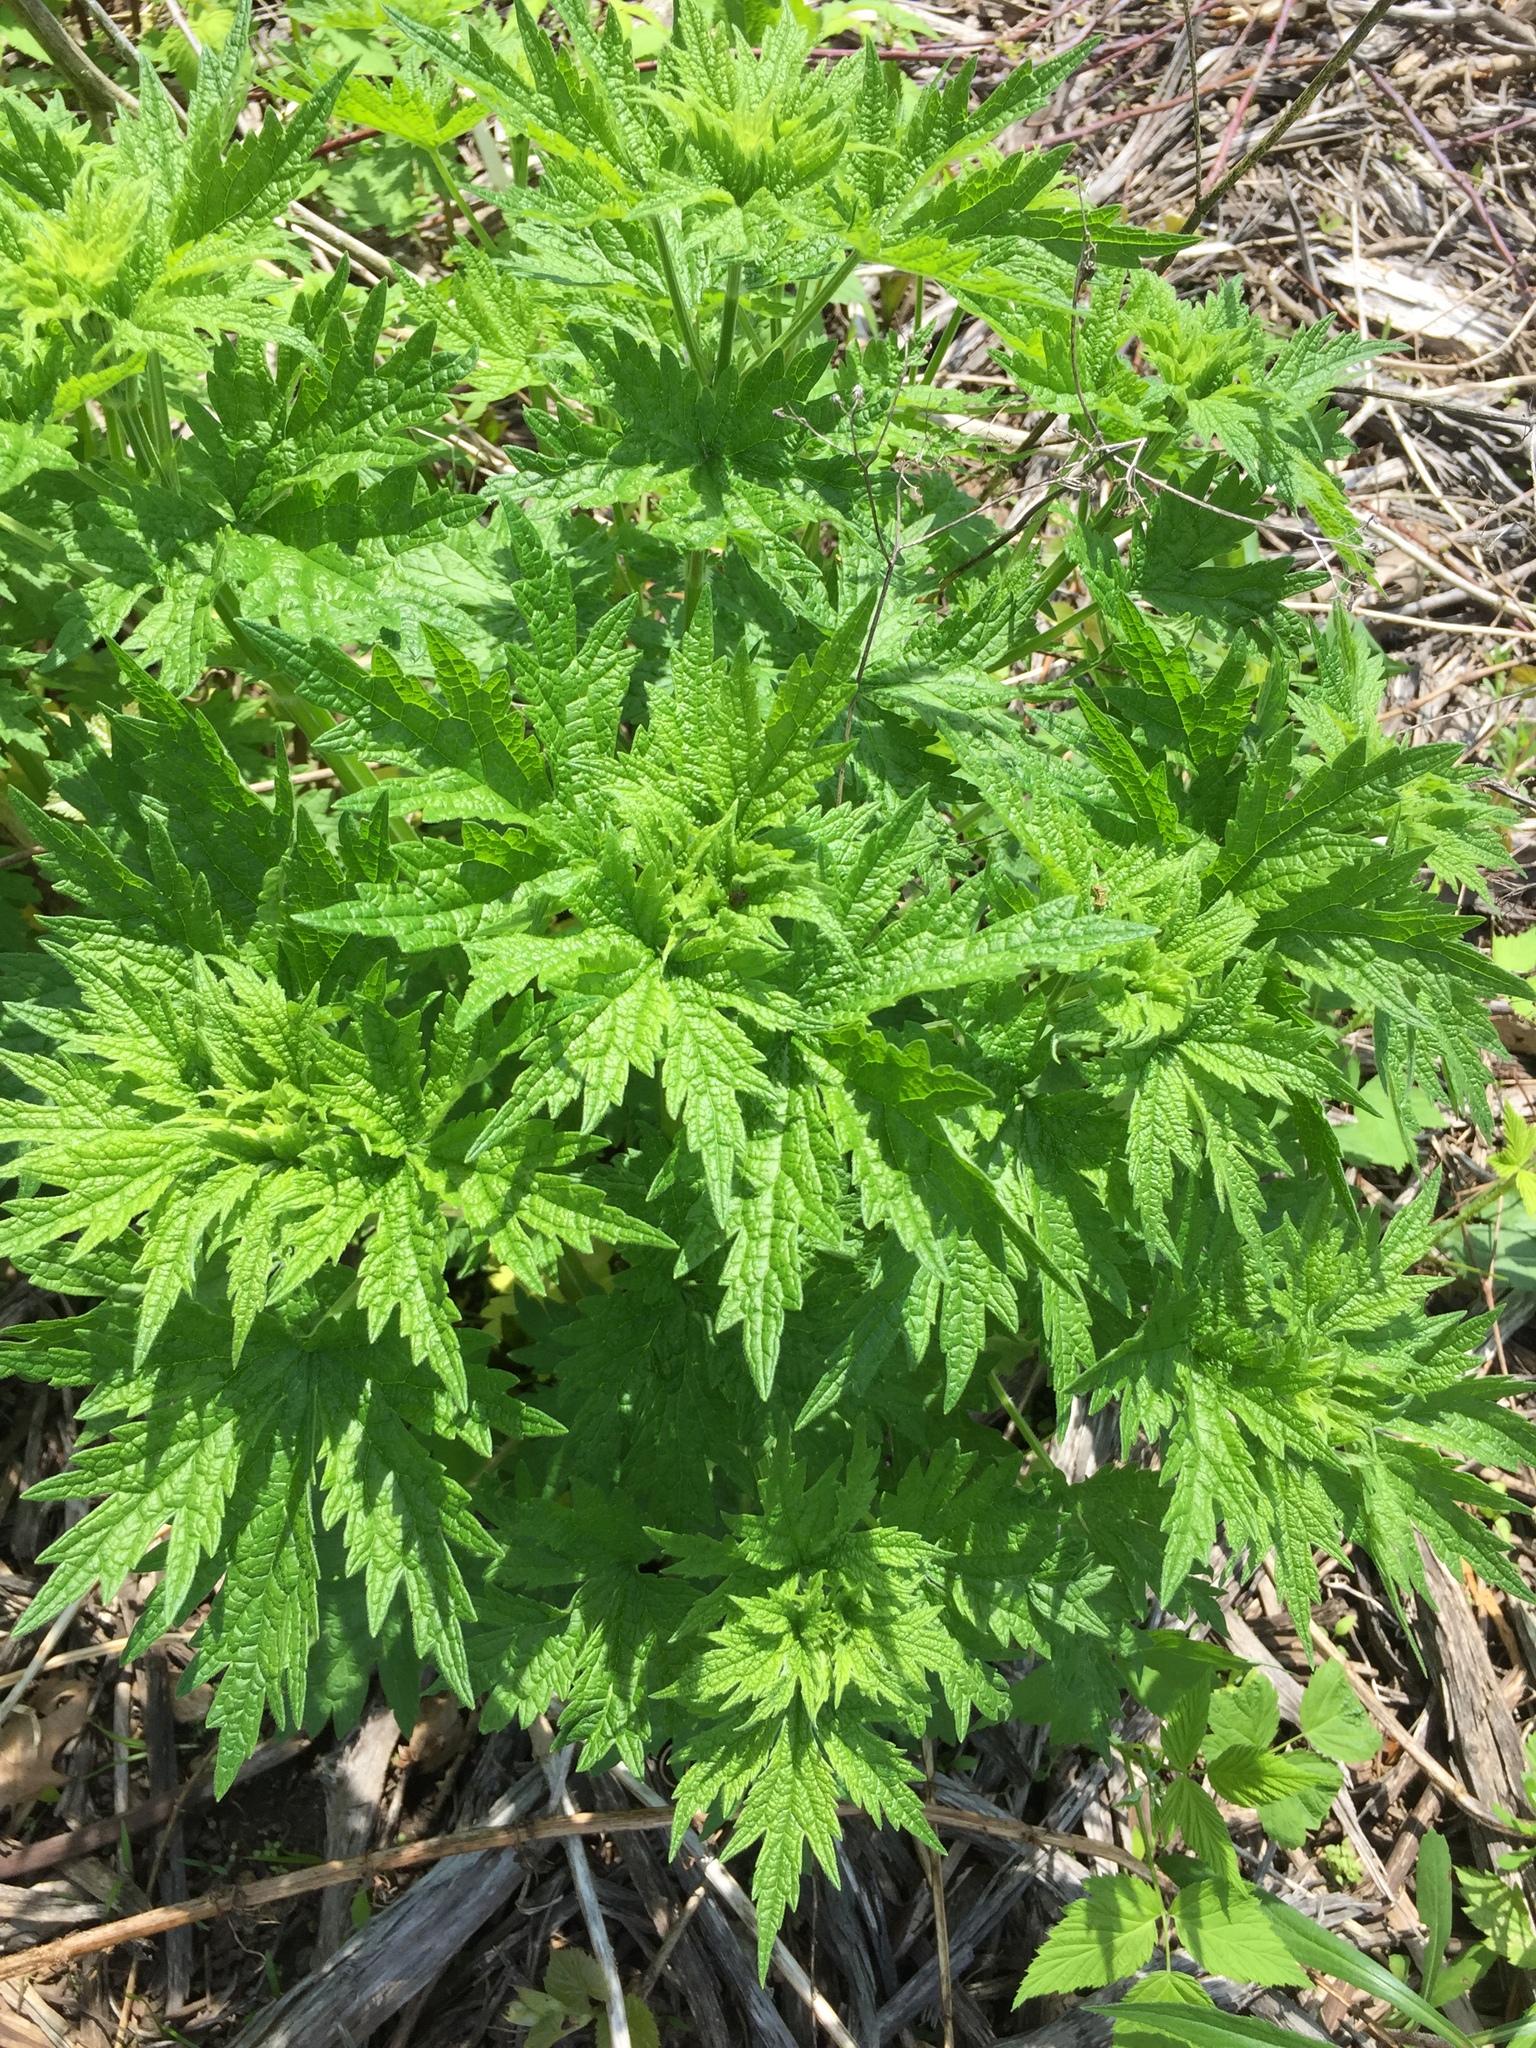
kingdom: Plantae
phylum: Tracheophyta
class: Magnoliopsida
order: Lamiales
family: Lamiaceae
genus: Leonurus
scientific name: Leonurus cardiaca
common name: Motherwort
